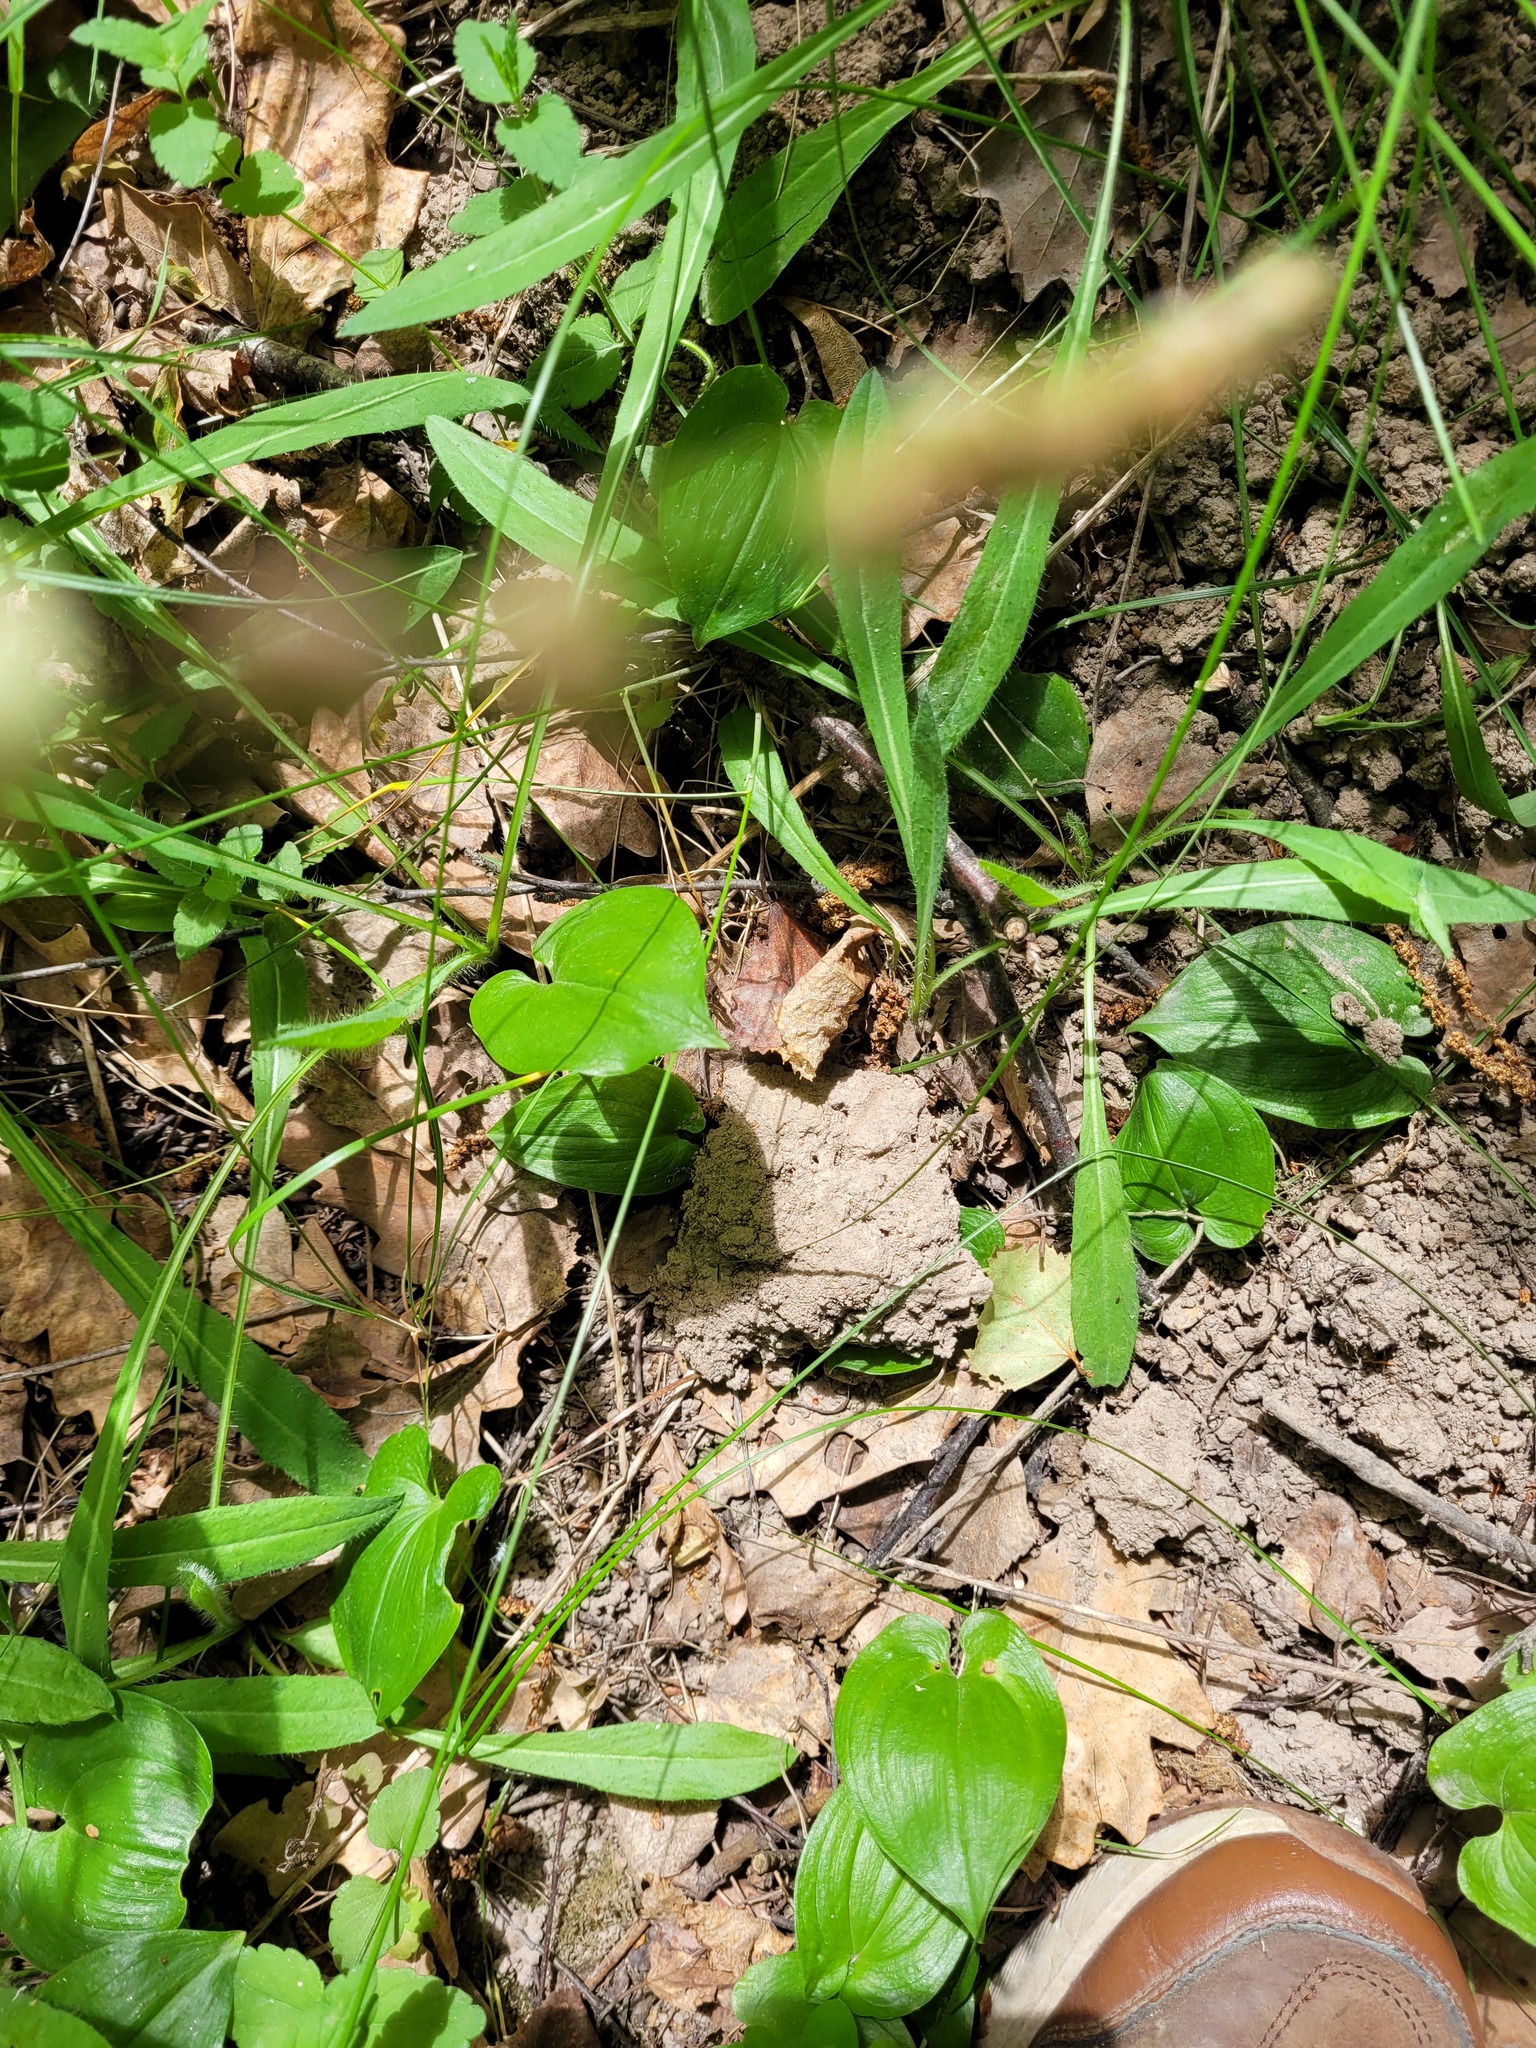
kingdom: Plantae
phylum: Tracheophyta
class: Liliopsida
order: Asparagales
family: Asparagaceae
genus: Maianthemum
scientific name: Maianthemum bifolium
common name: May lily
